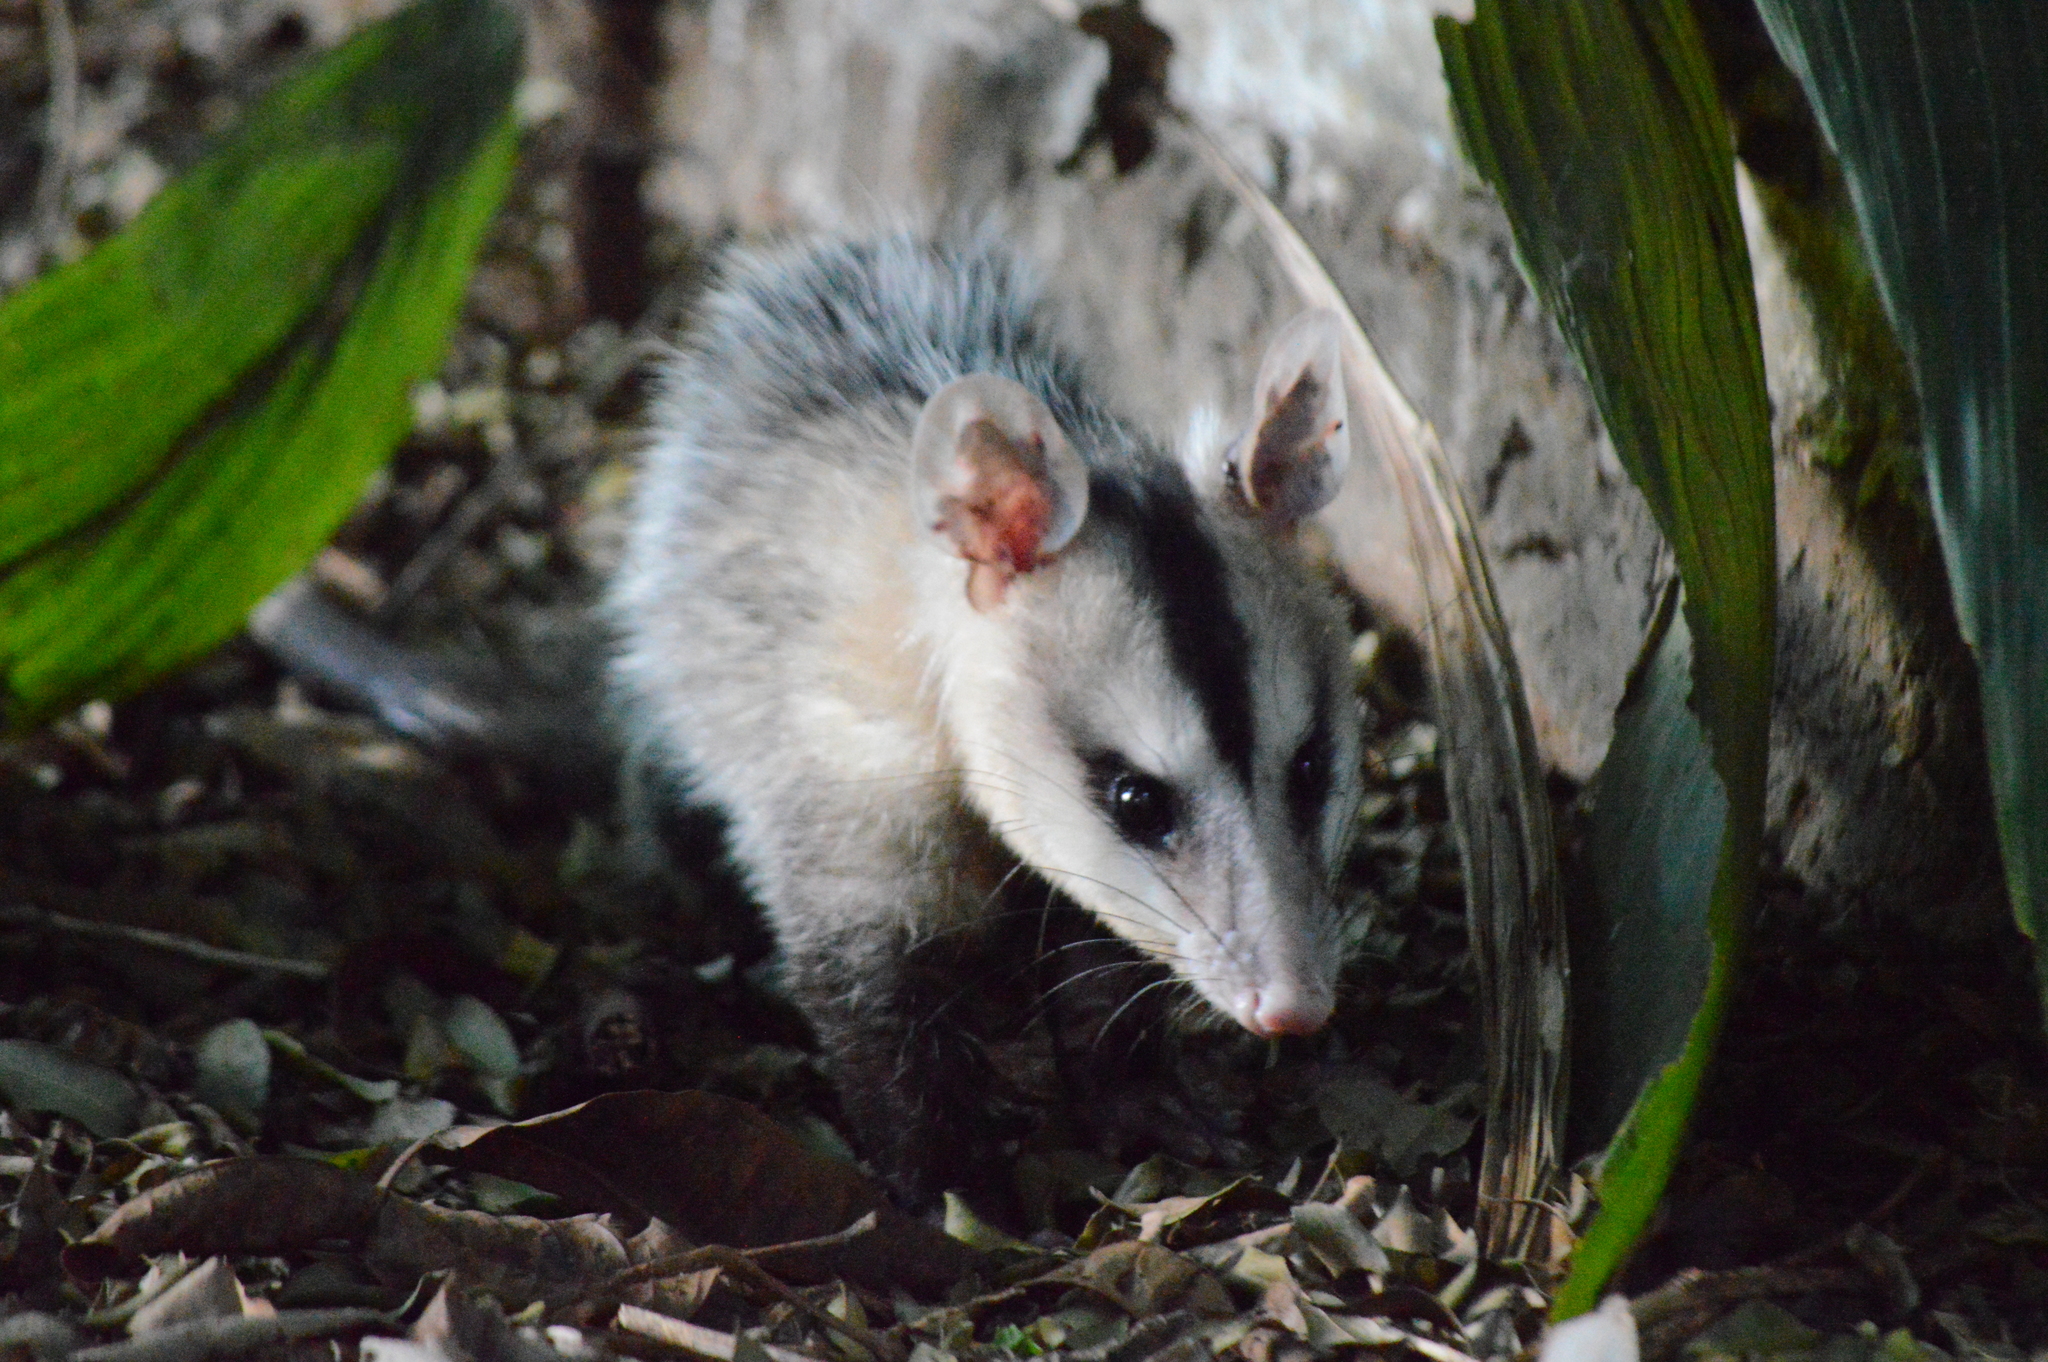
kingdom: Animalia
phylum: Chordata
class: Mammalia
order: Didelphimorphia
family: Didelphidae
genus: Didelphis
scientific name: Didelphis albiventris
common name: White-eared opossum
